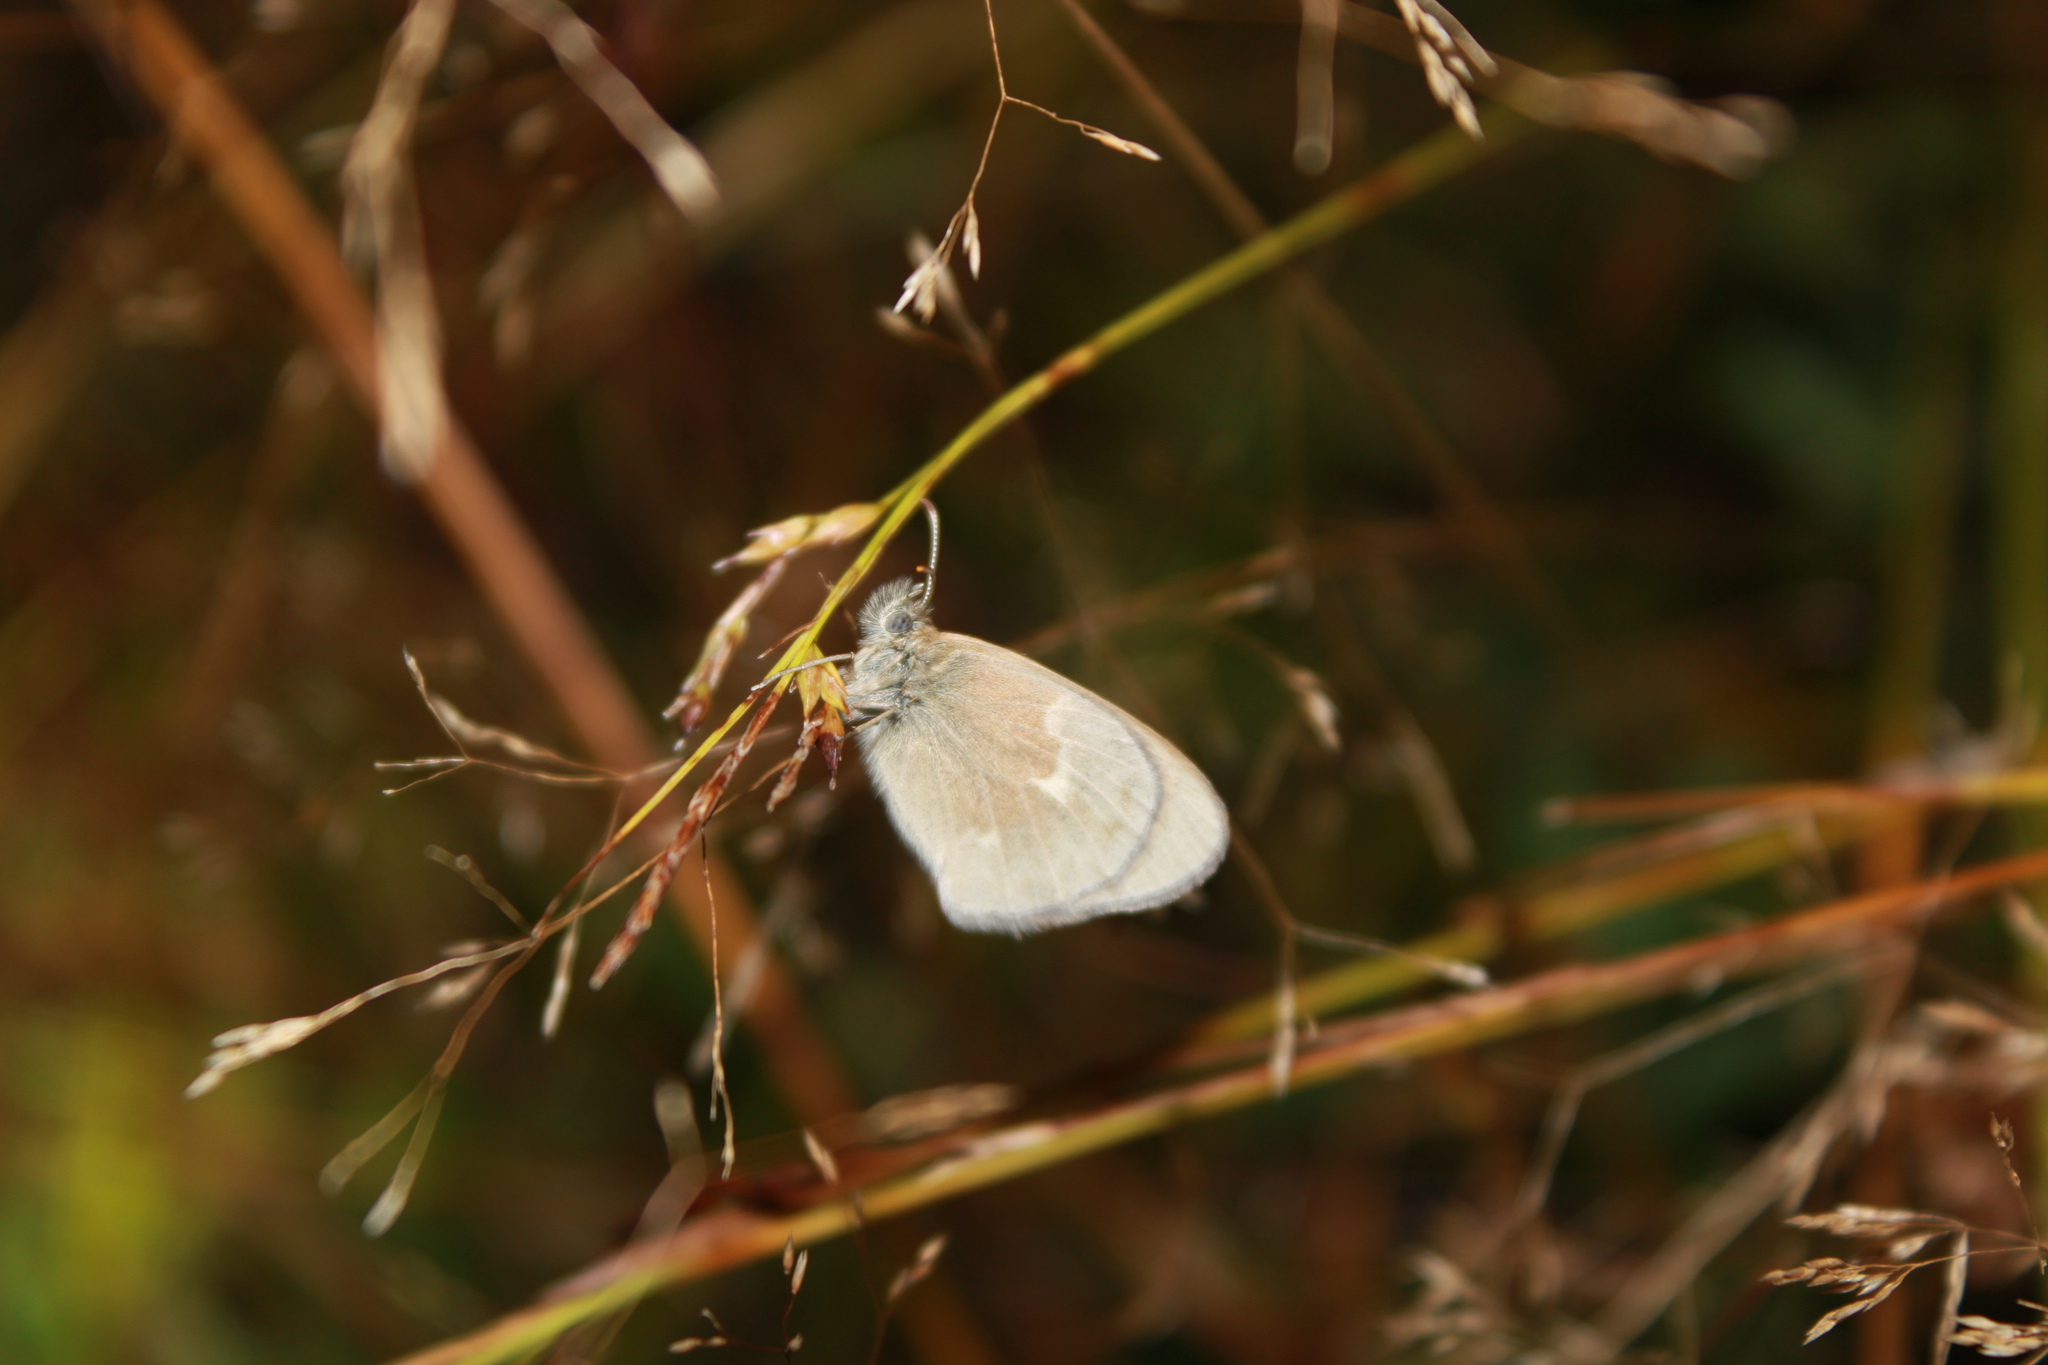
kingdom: Animalia
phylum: Arthropoda
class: Insecta
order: Lepidoptera
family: Nymphalidae
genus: Coenonympha
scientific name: Coenonympha california
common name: Common ringlet
